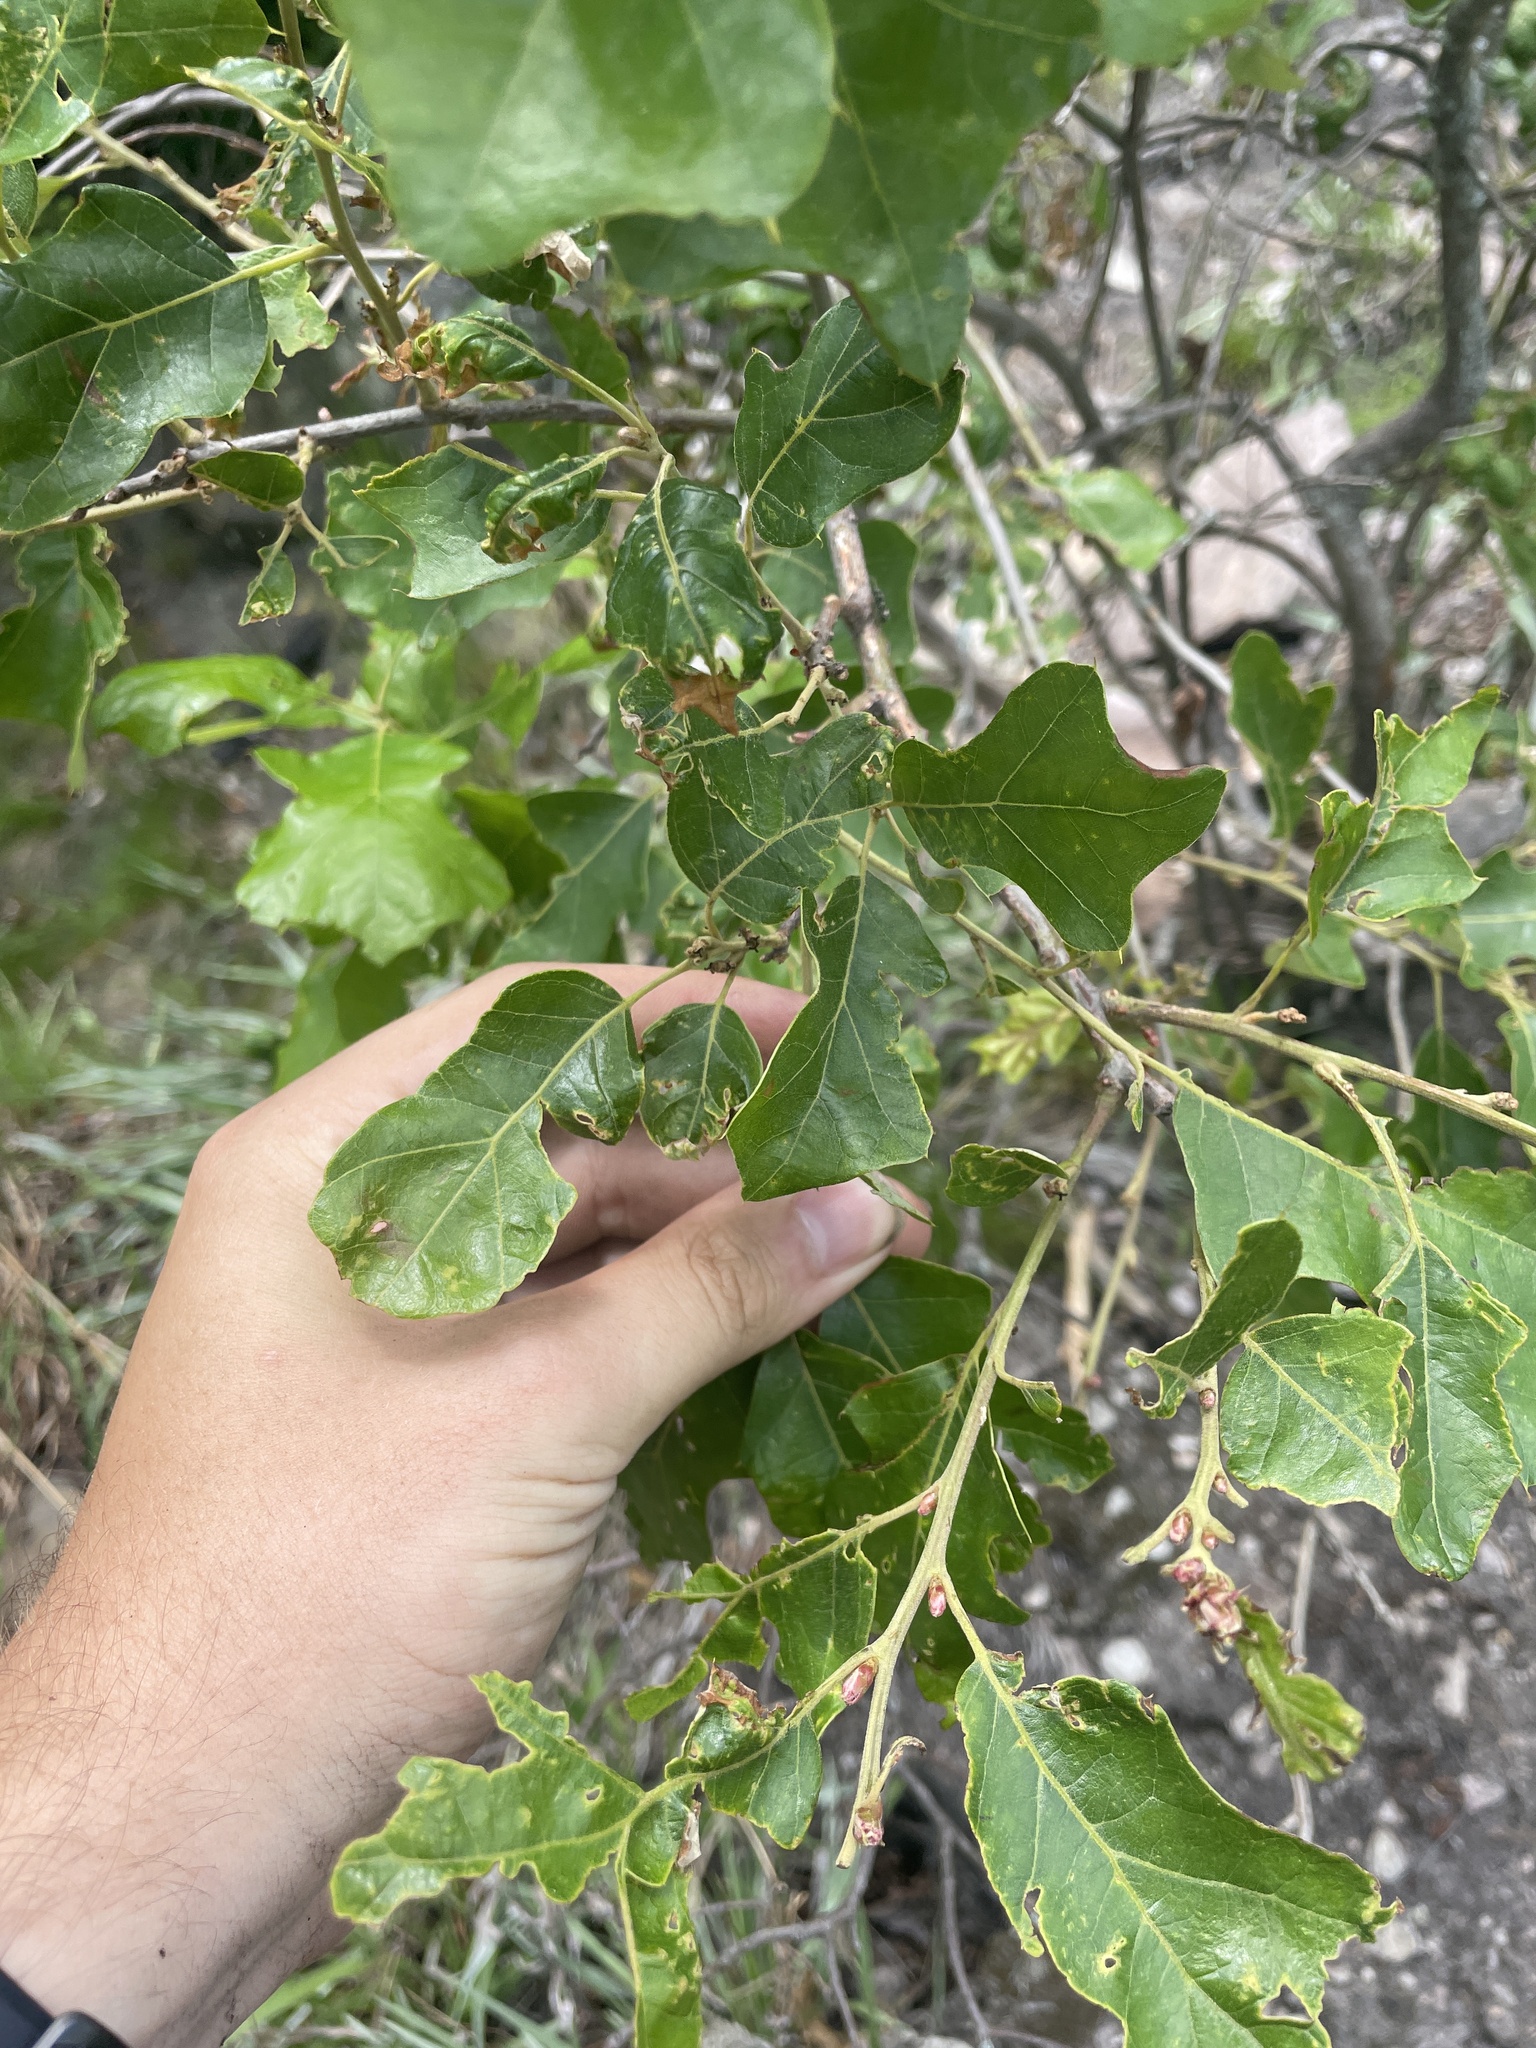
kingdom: Plantae
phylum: Tracheophyta
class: Magnoliopsida
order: Fagales
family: Fagaceae
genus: Quercus
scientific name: Quercus ilicifolia
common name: Bear oak
